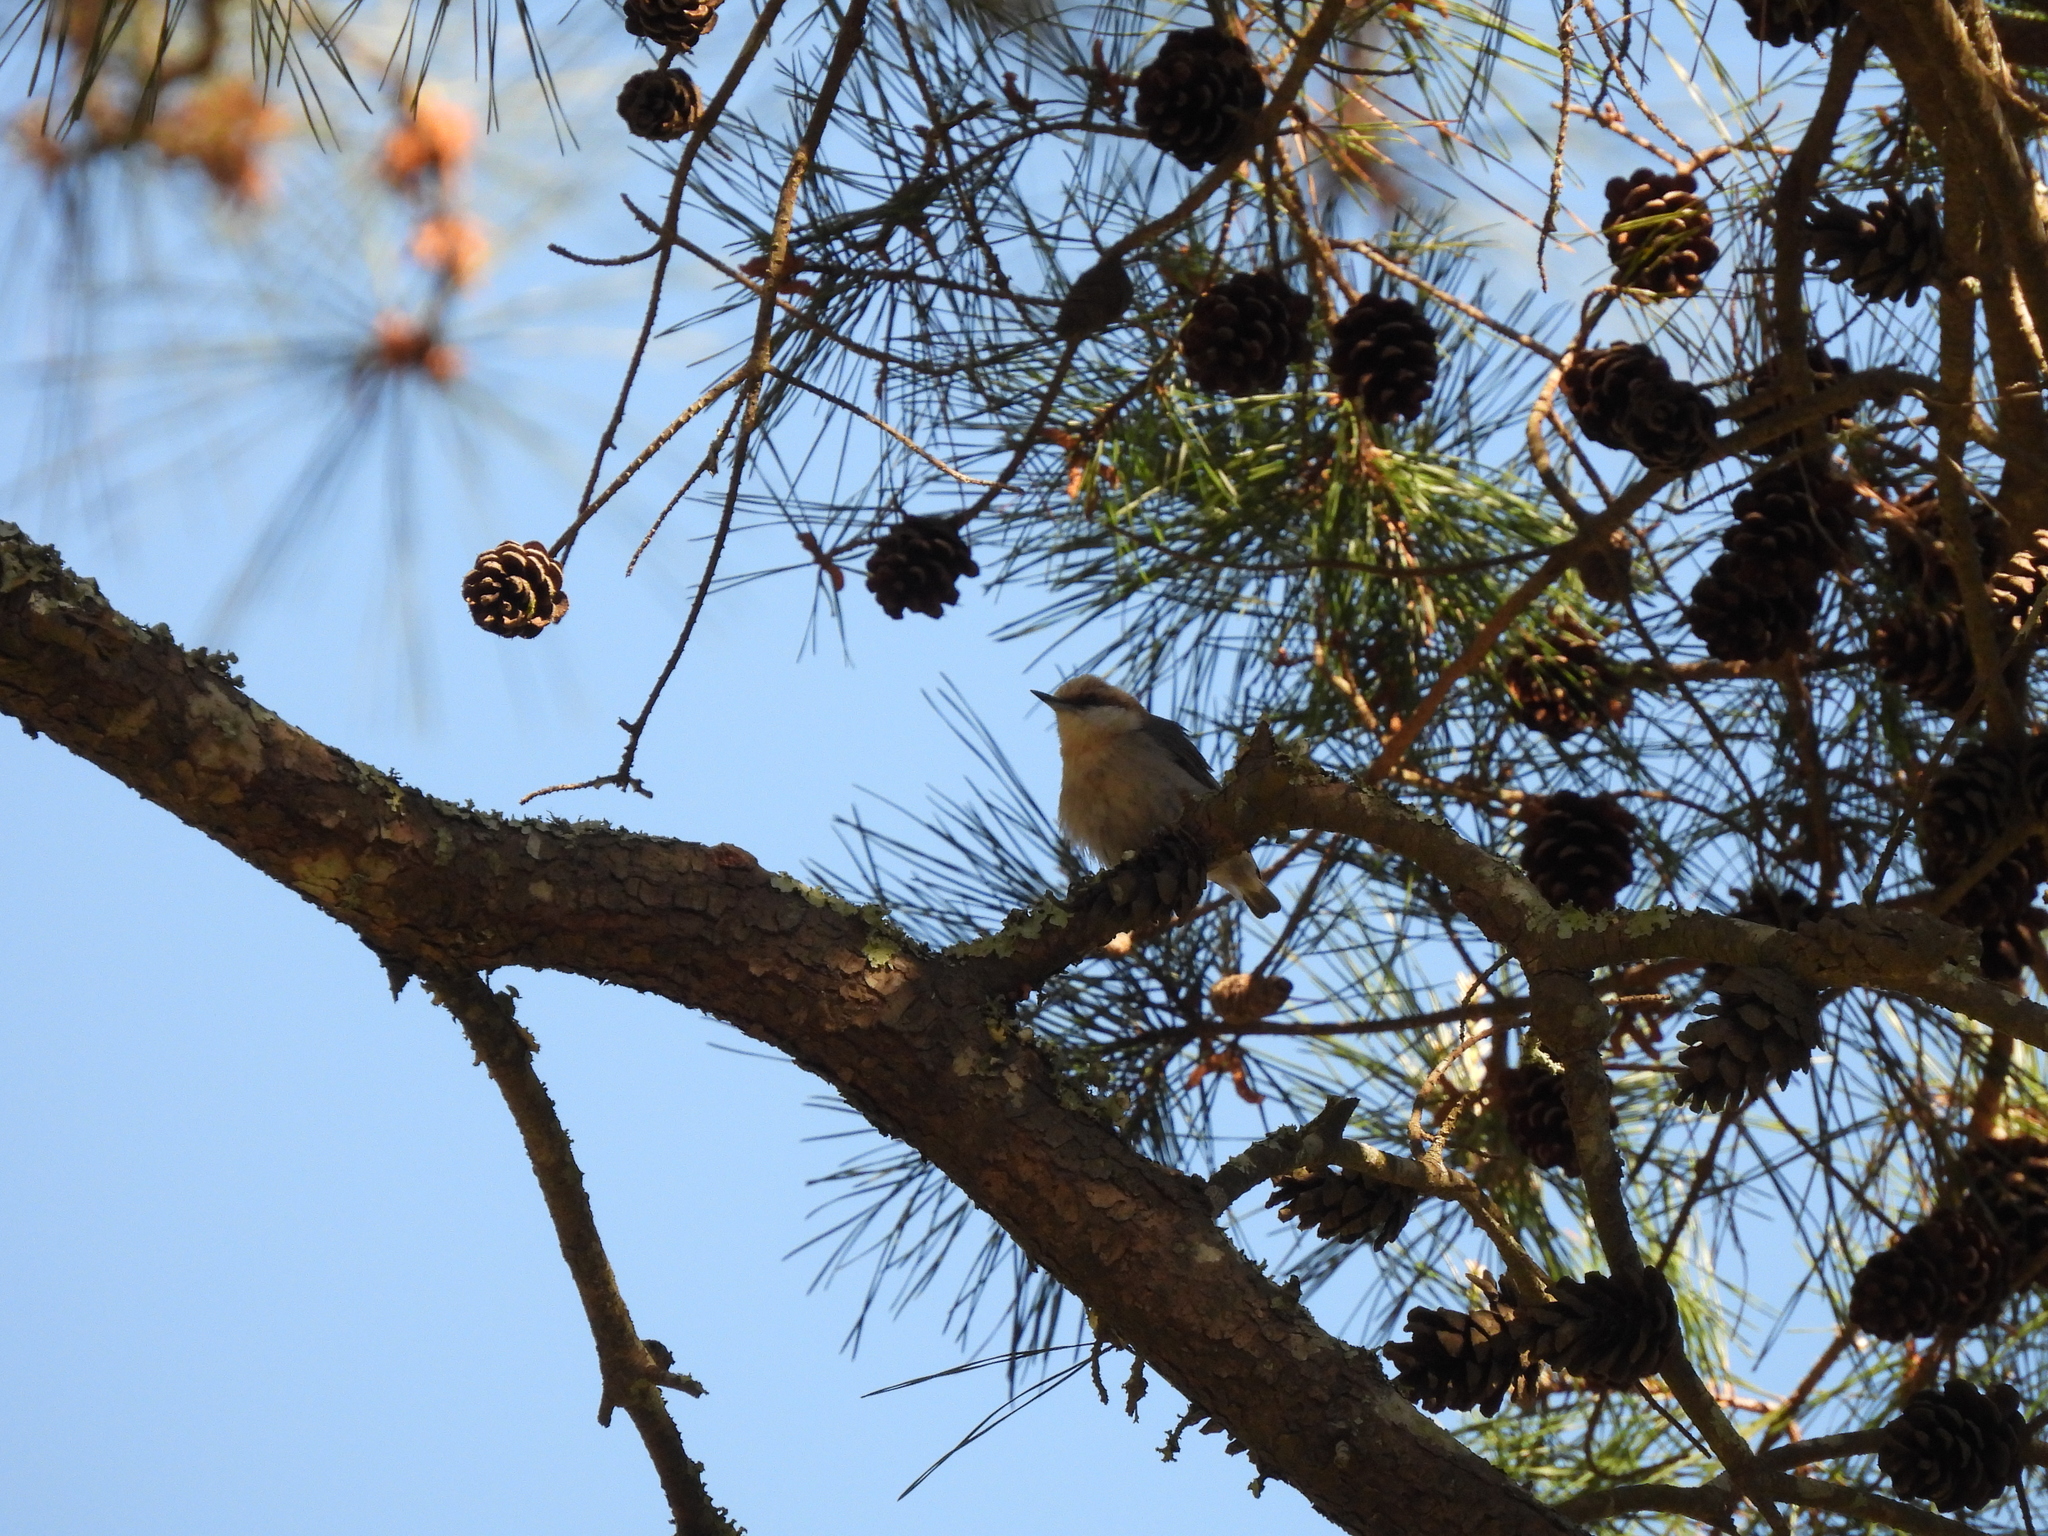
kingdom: Animalia
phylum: Chordata
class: Aves
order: Passeriformes
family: Sittidae
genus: Sitta
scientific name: Sitta pusilla
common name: Brown-headed nuthatch
